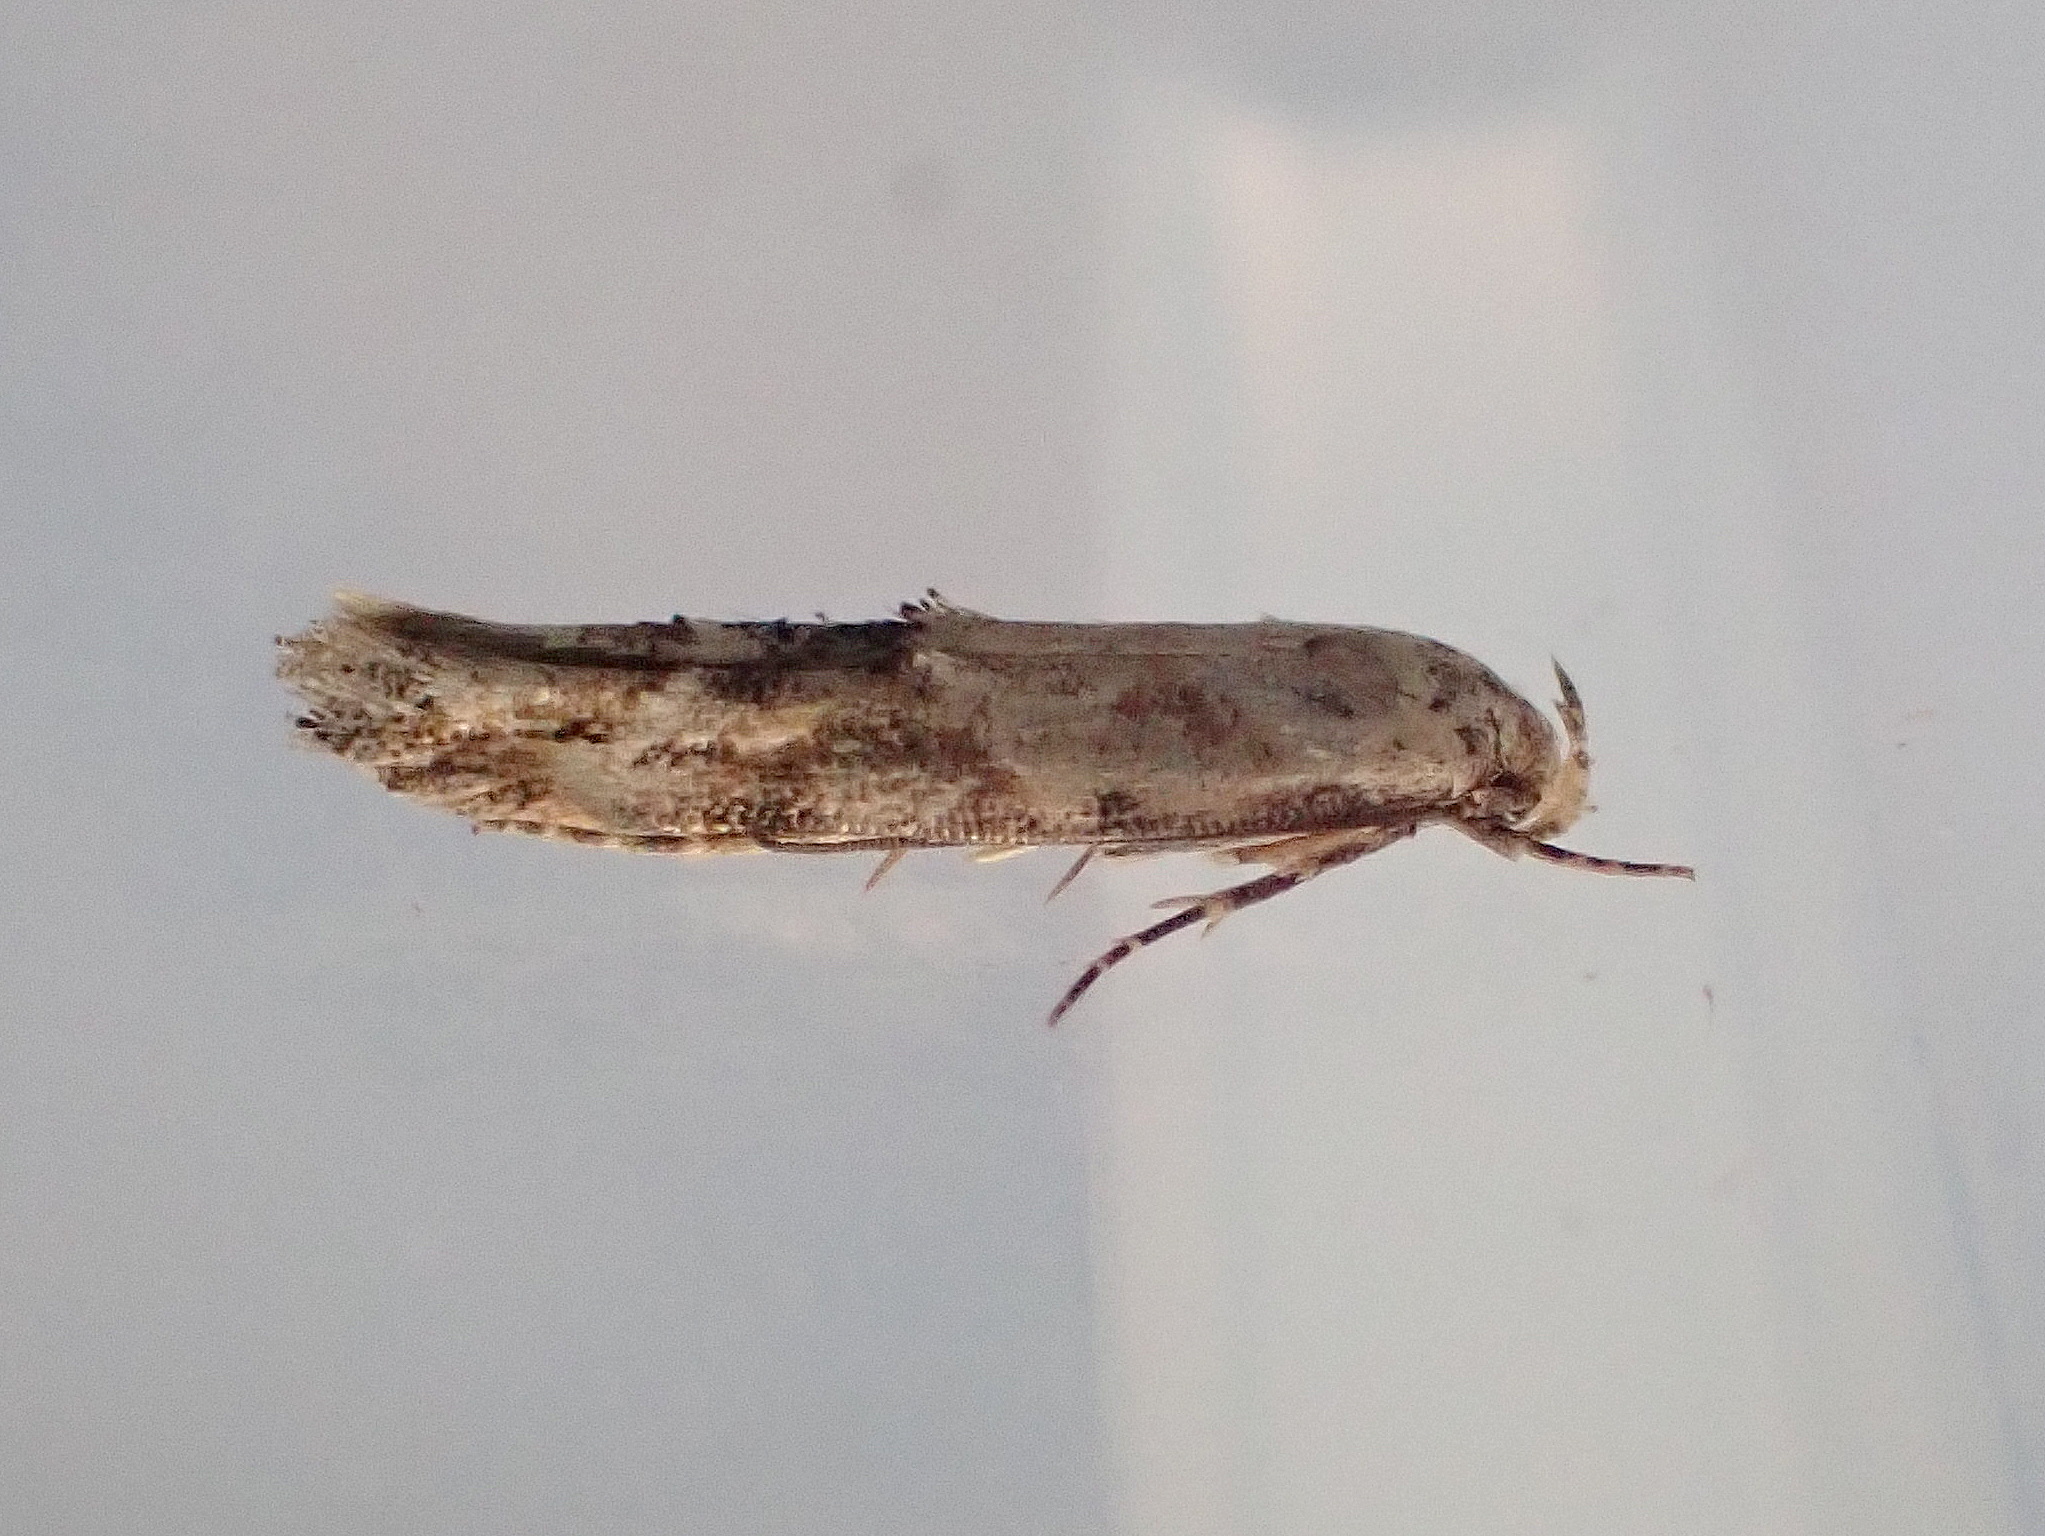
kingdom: Animalia
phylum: Arthropoda
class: Insecta
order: Lepidoptera
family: Momphidae
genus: Mompha
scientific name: Mompha stellella
